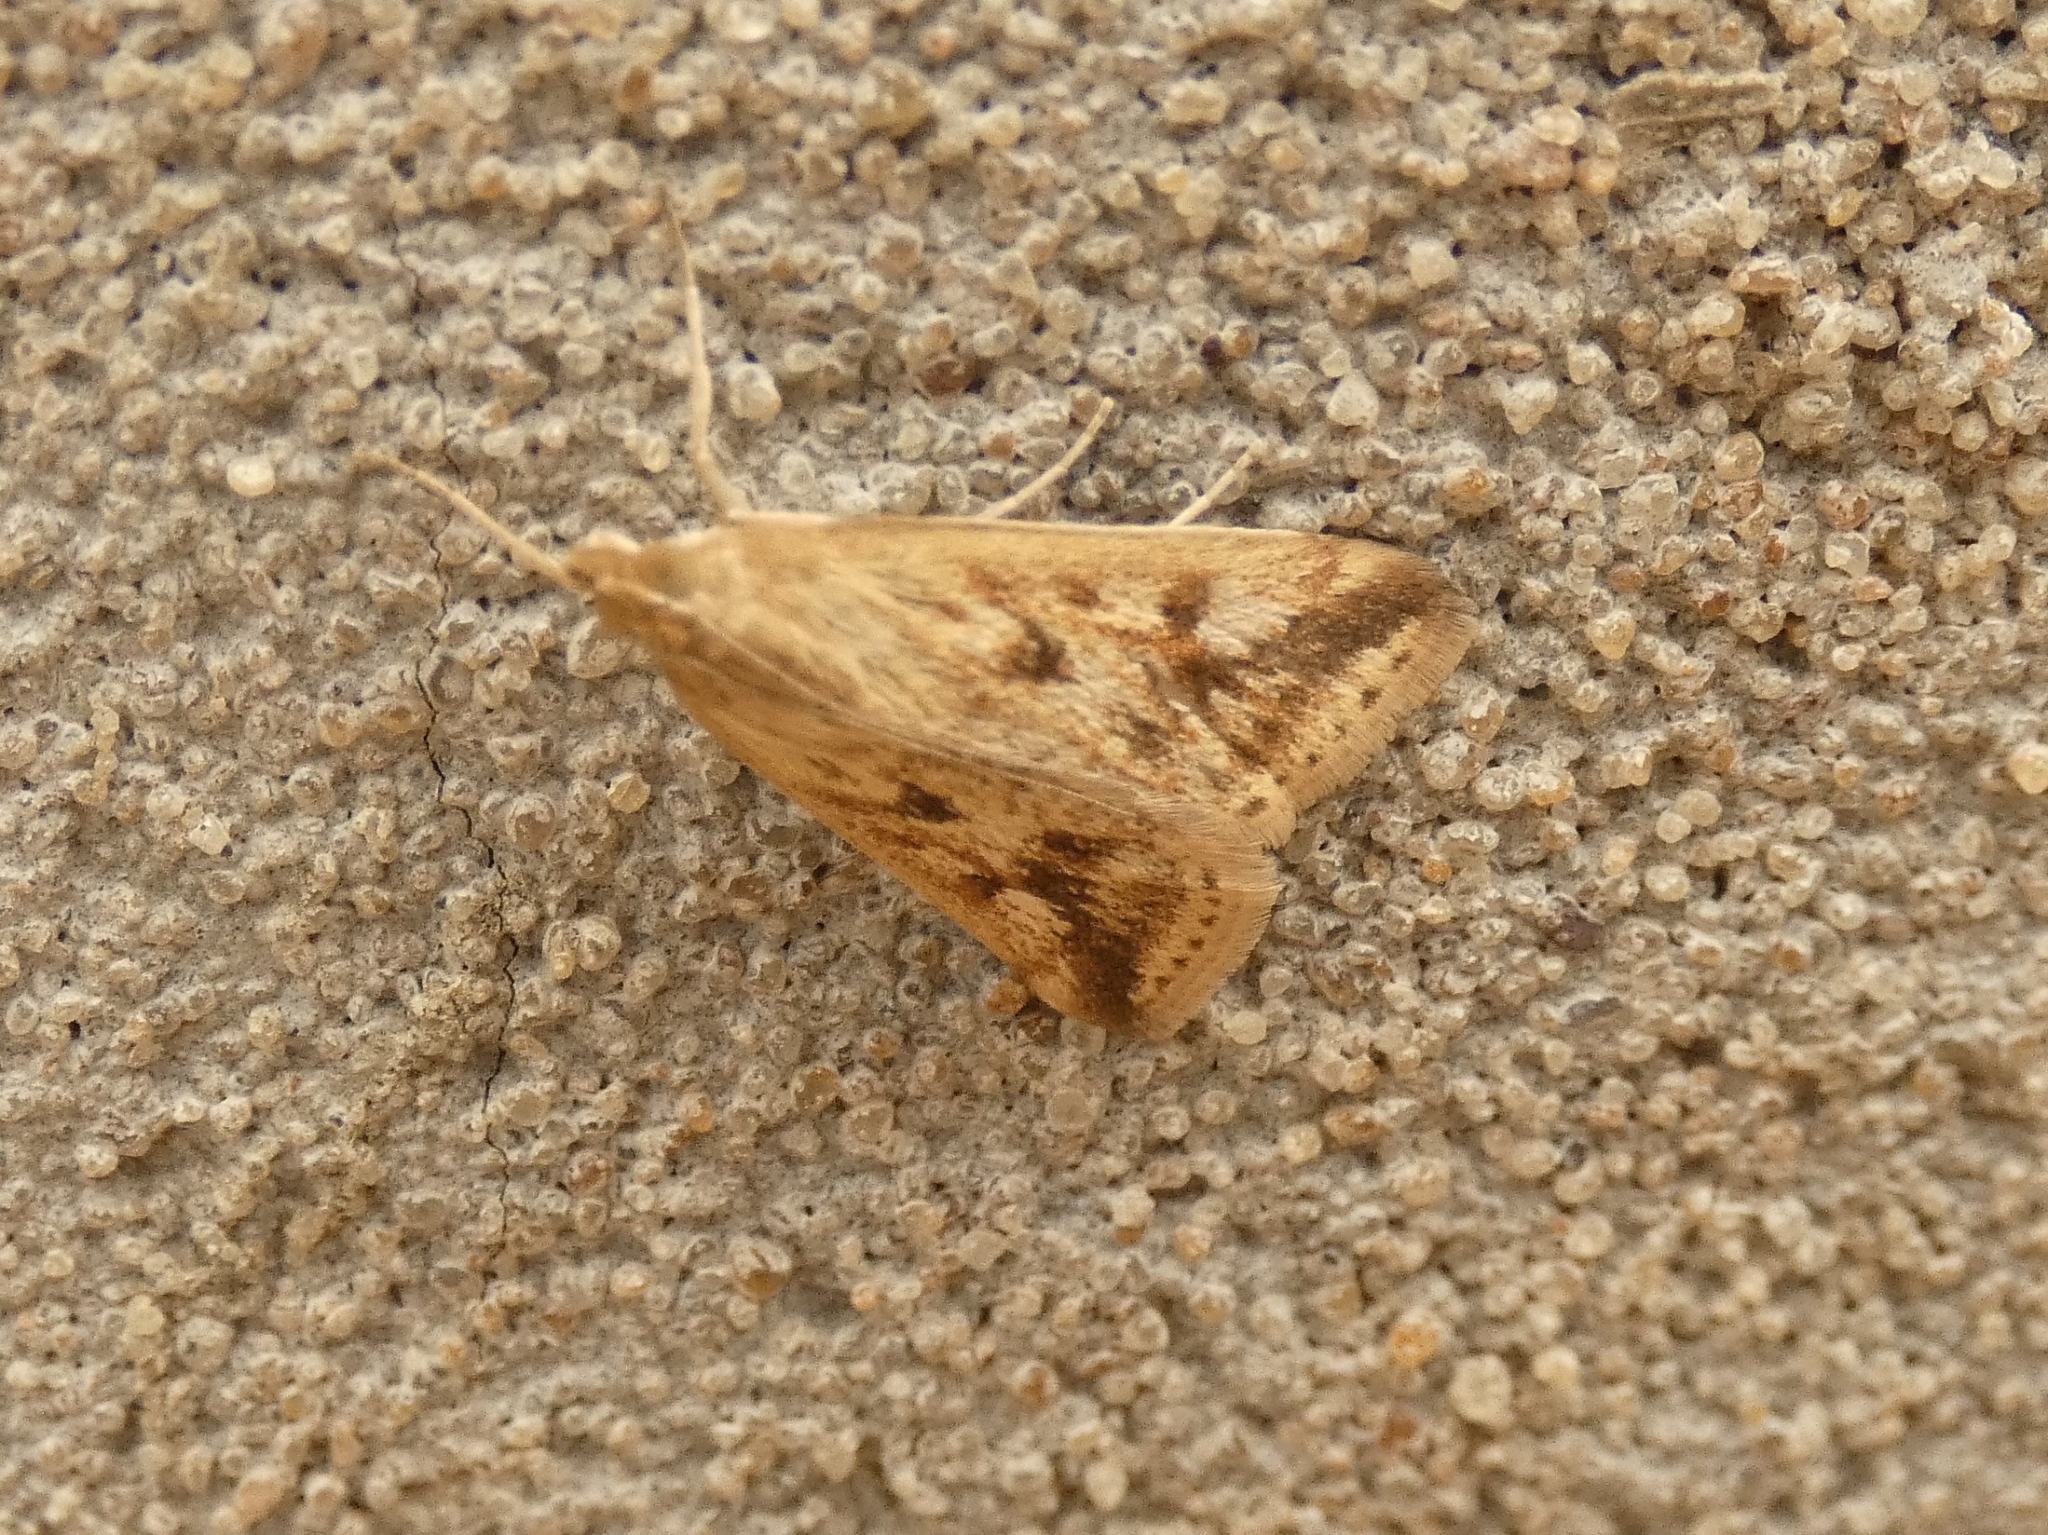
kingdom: Animalia
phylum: Arthropoda
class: Insecta
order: Lepidoptera
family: Crambidae
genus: Achyra
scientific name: Achyra bifidalis
